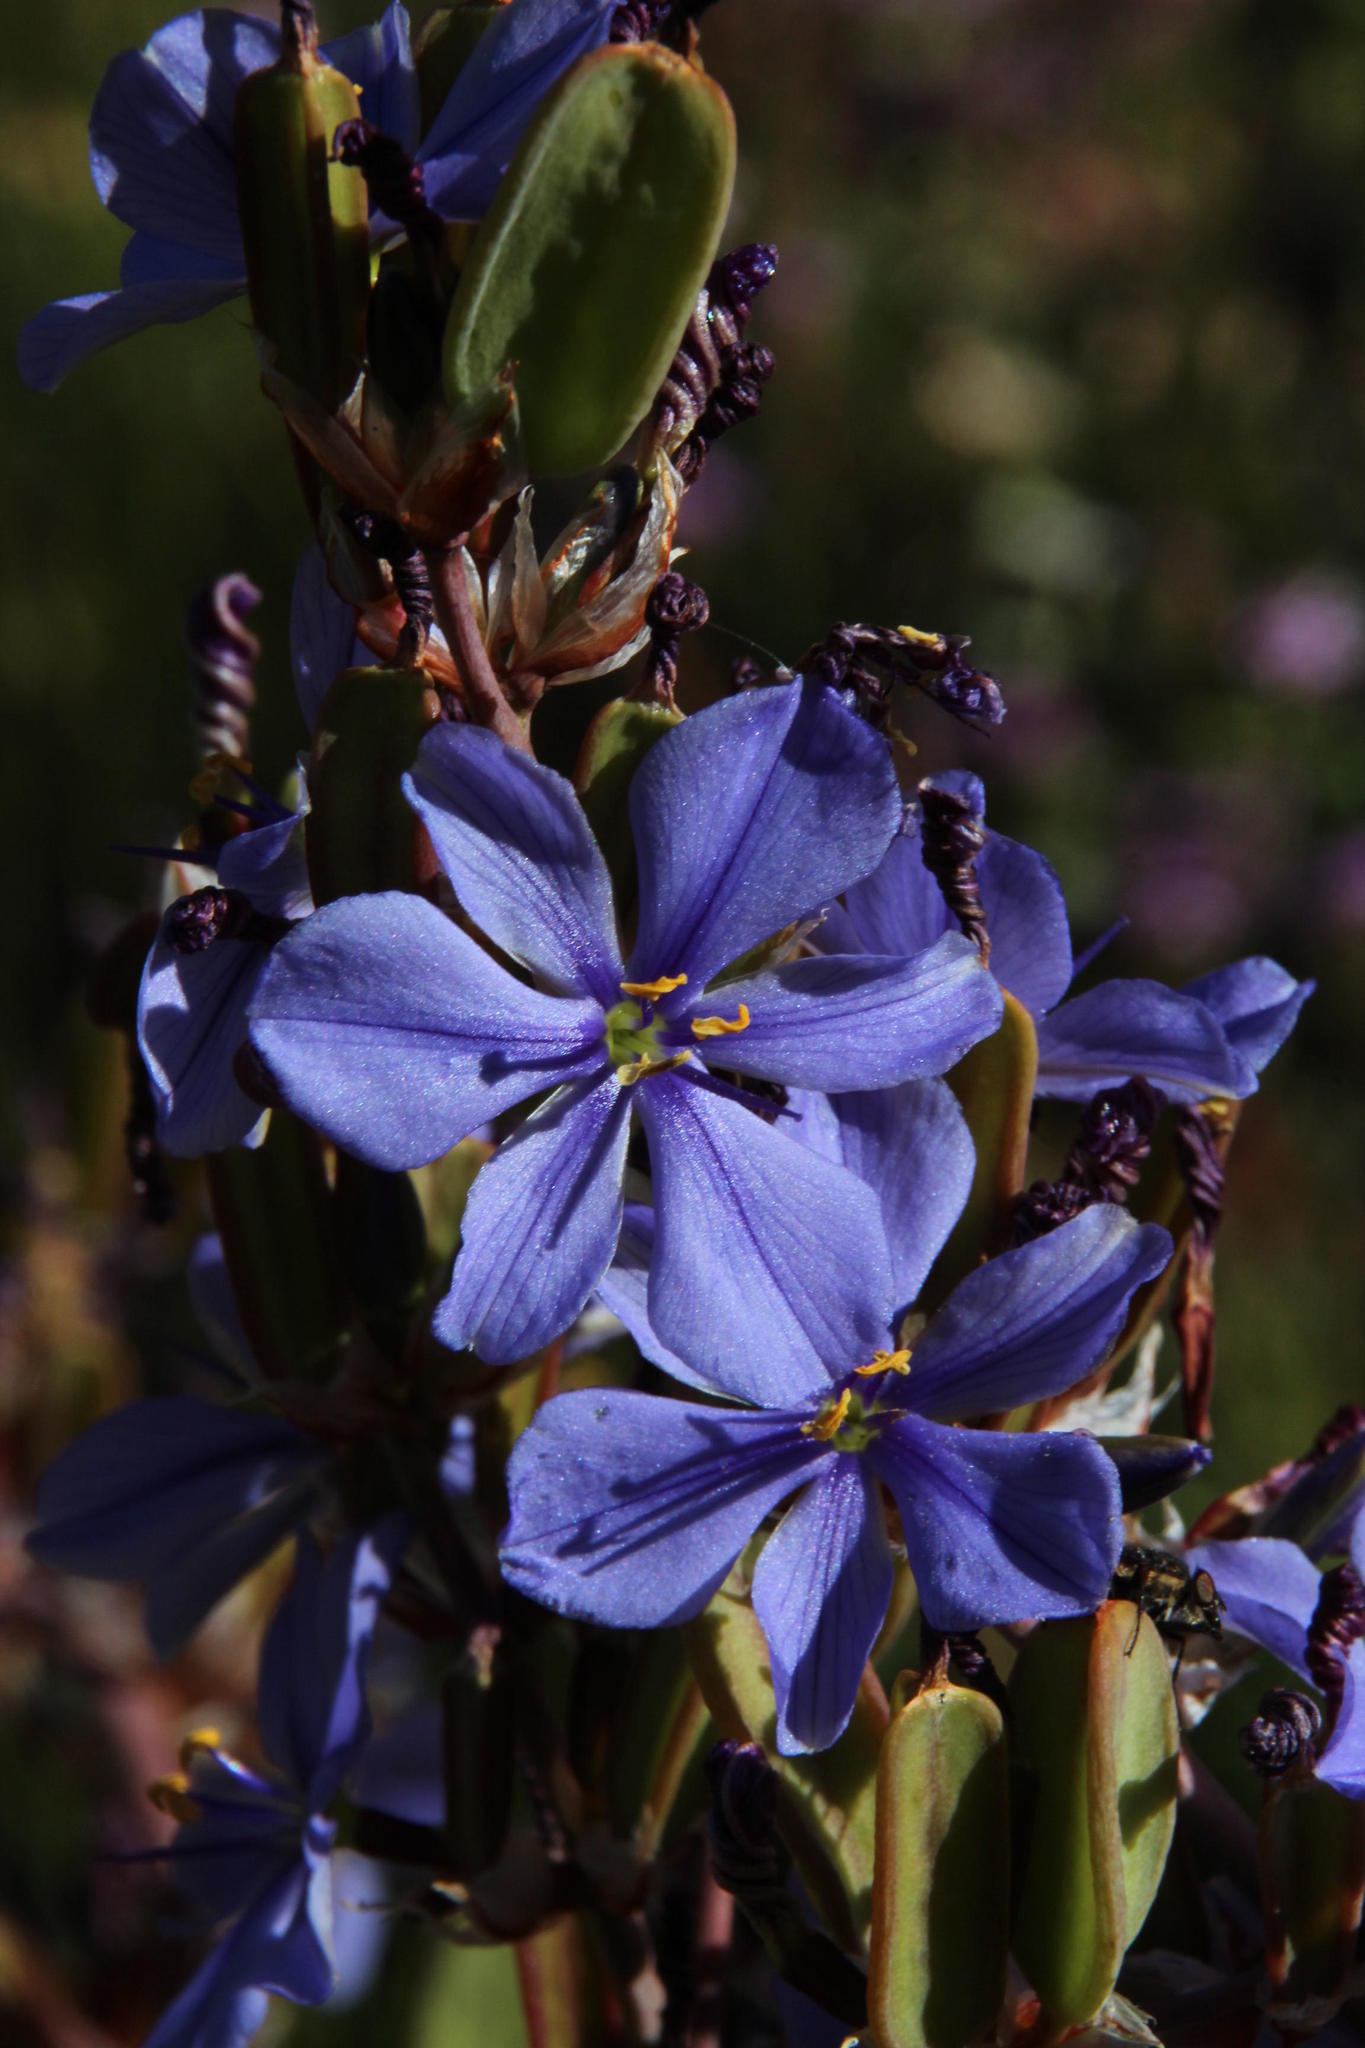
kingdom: Plantae
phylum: Tracheophyta
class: Liliopsida
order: Asparagales
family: Iridaceae
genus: Aristea
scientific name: Aristea capitata
